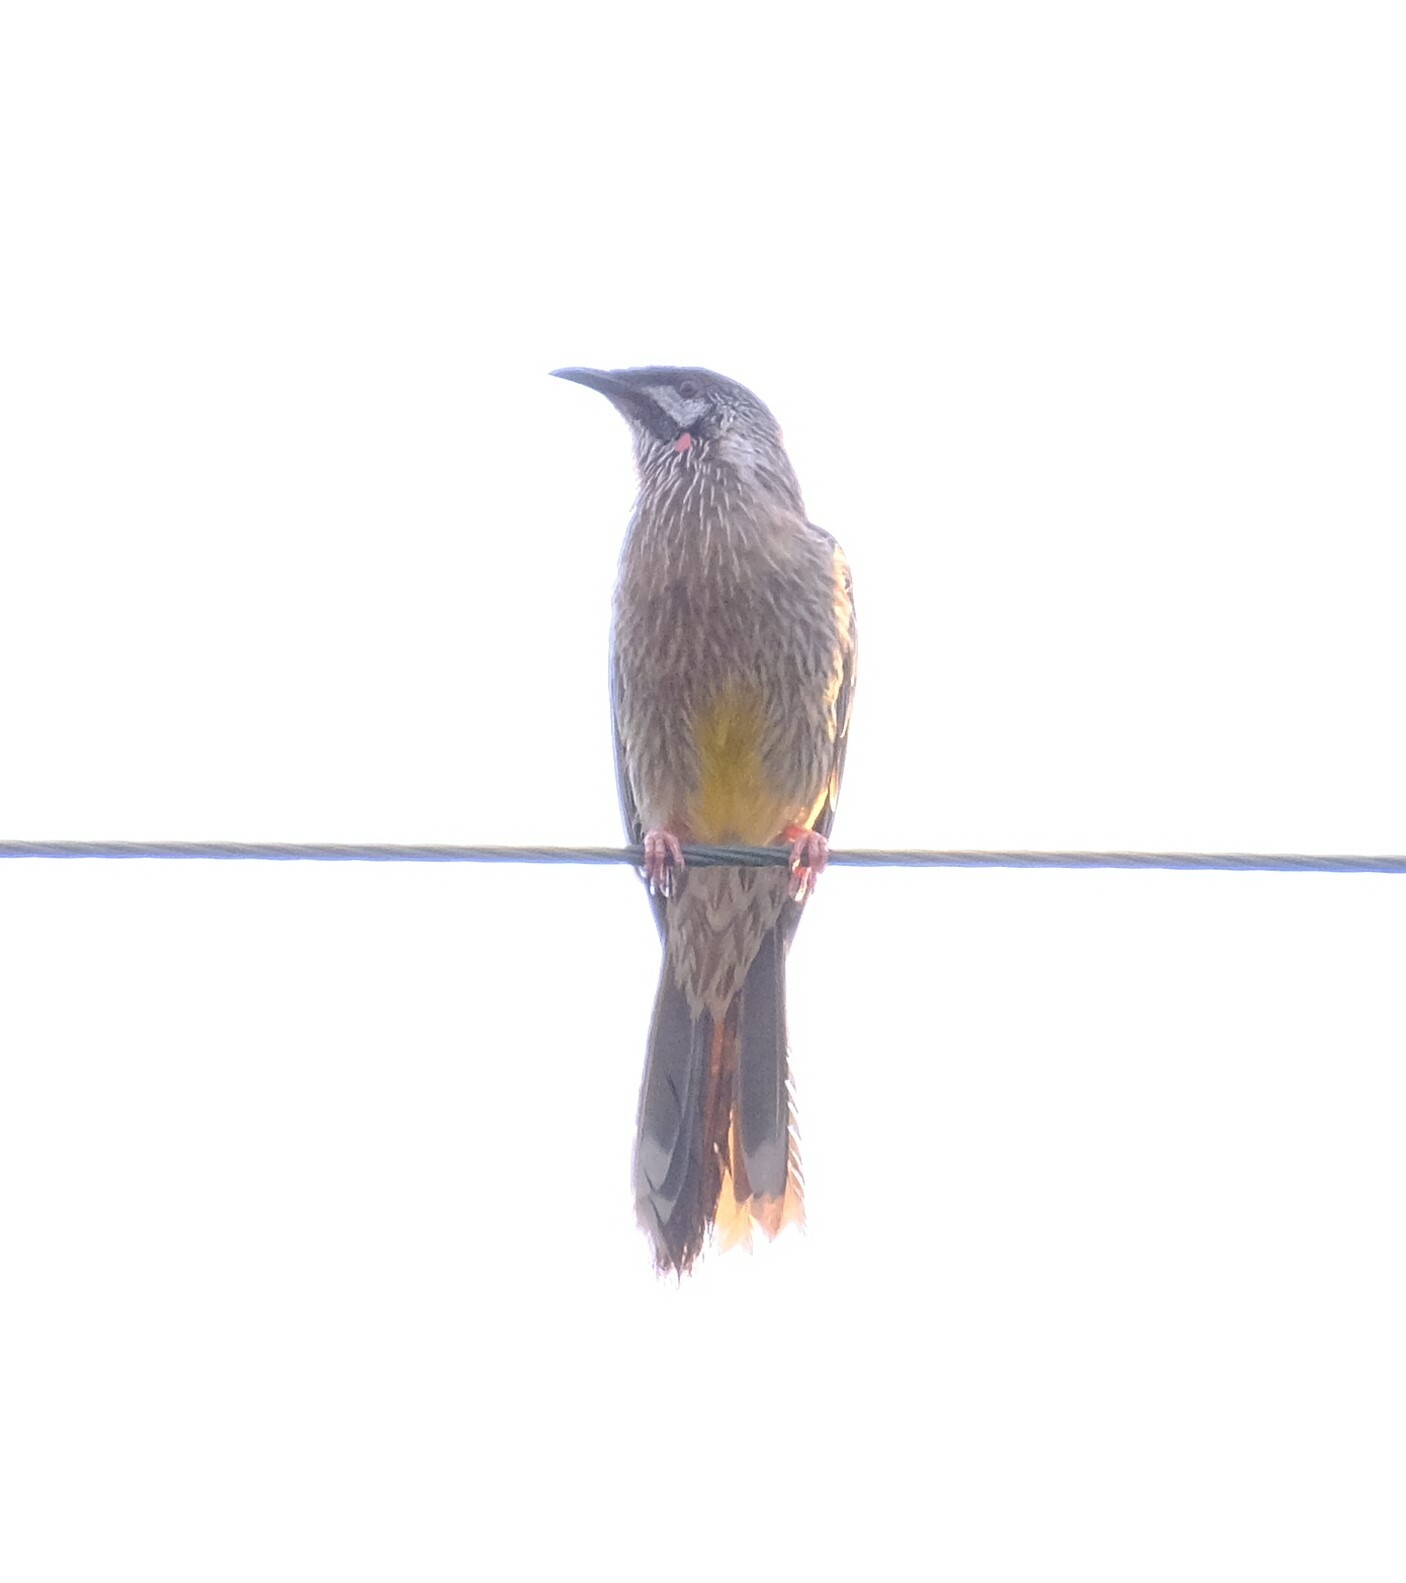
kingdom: Animalia
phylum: Chordata
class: Aves
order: Passeriformes
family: Meliphagidae
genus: Anthochaera
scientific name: Anthochaera carunculata
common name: Red wattlebird
